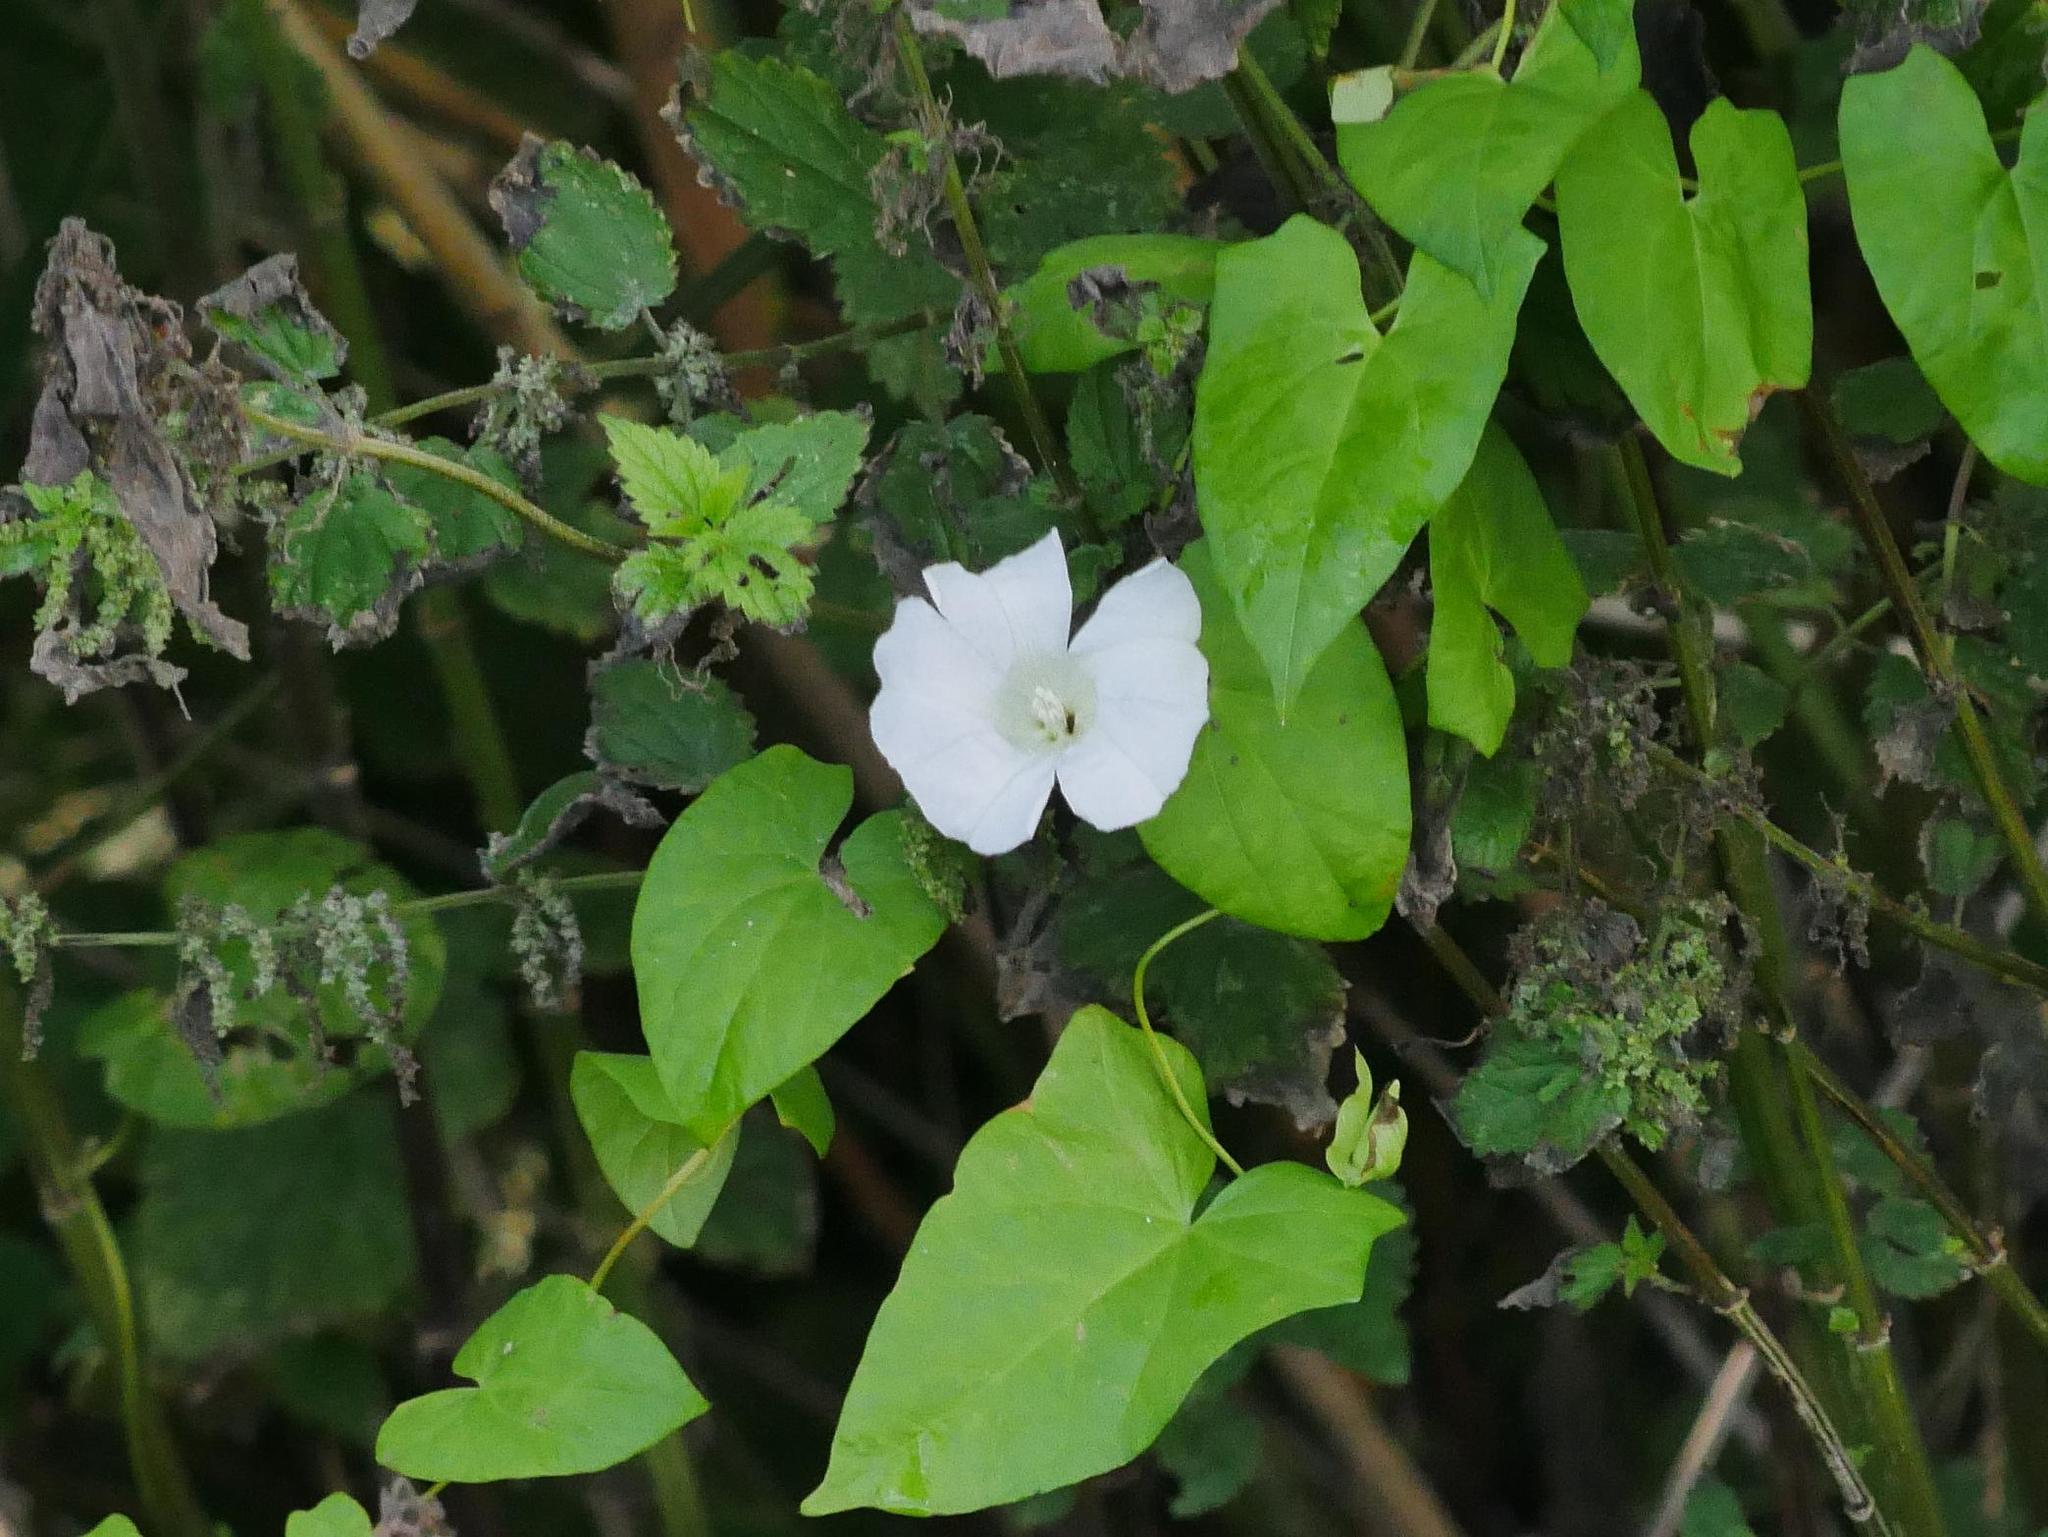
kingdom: Plantae
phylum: Tracheophyta
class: Magnoliopsida
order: Solanales
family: Convolvulaceae
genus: Calystegia
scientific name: Calystegia sepium
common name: Hedge bindweed
